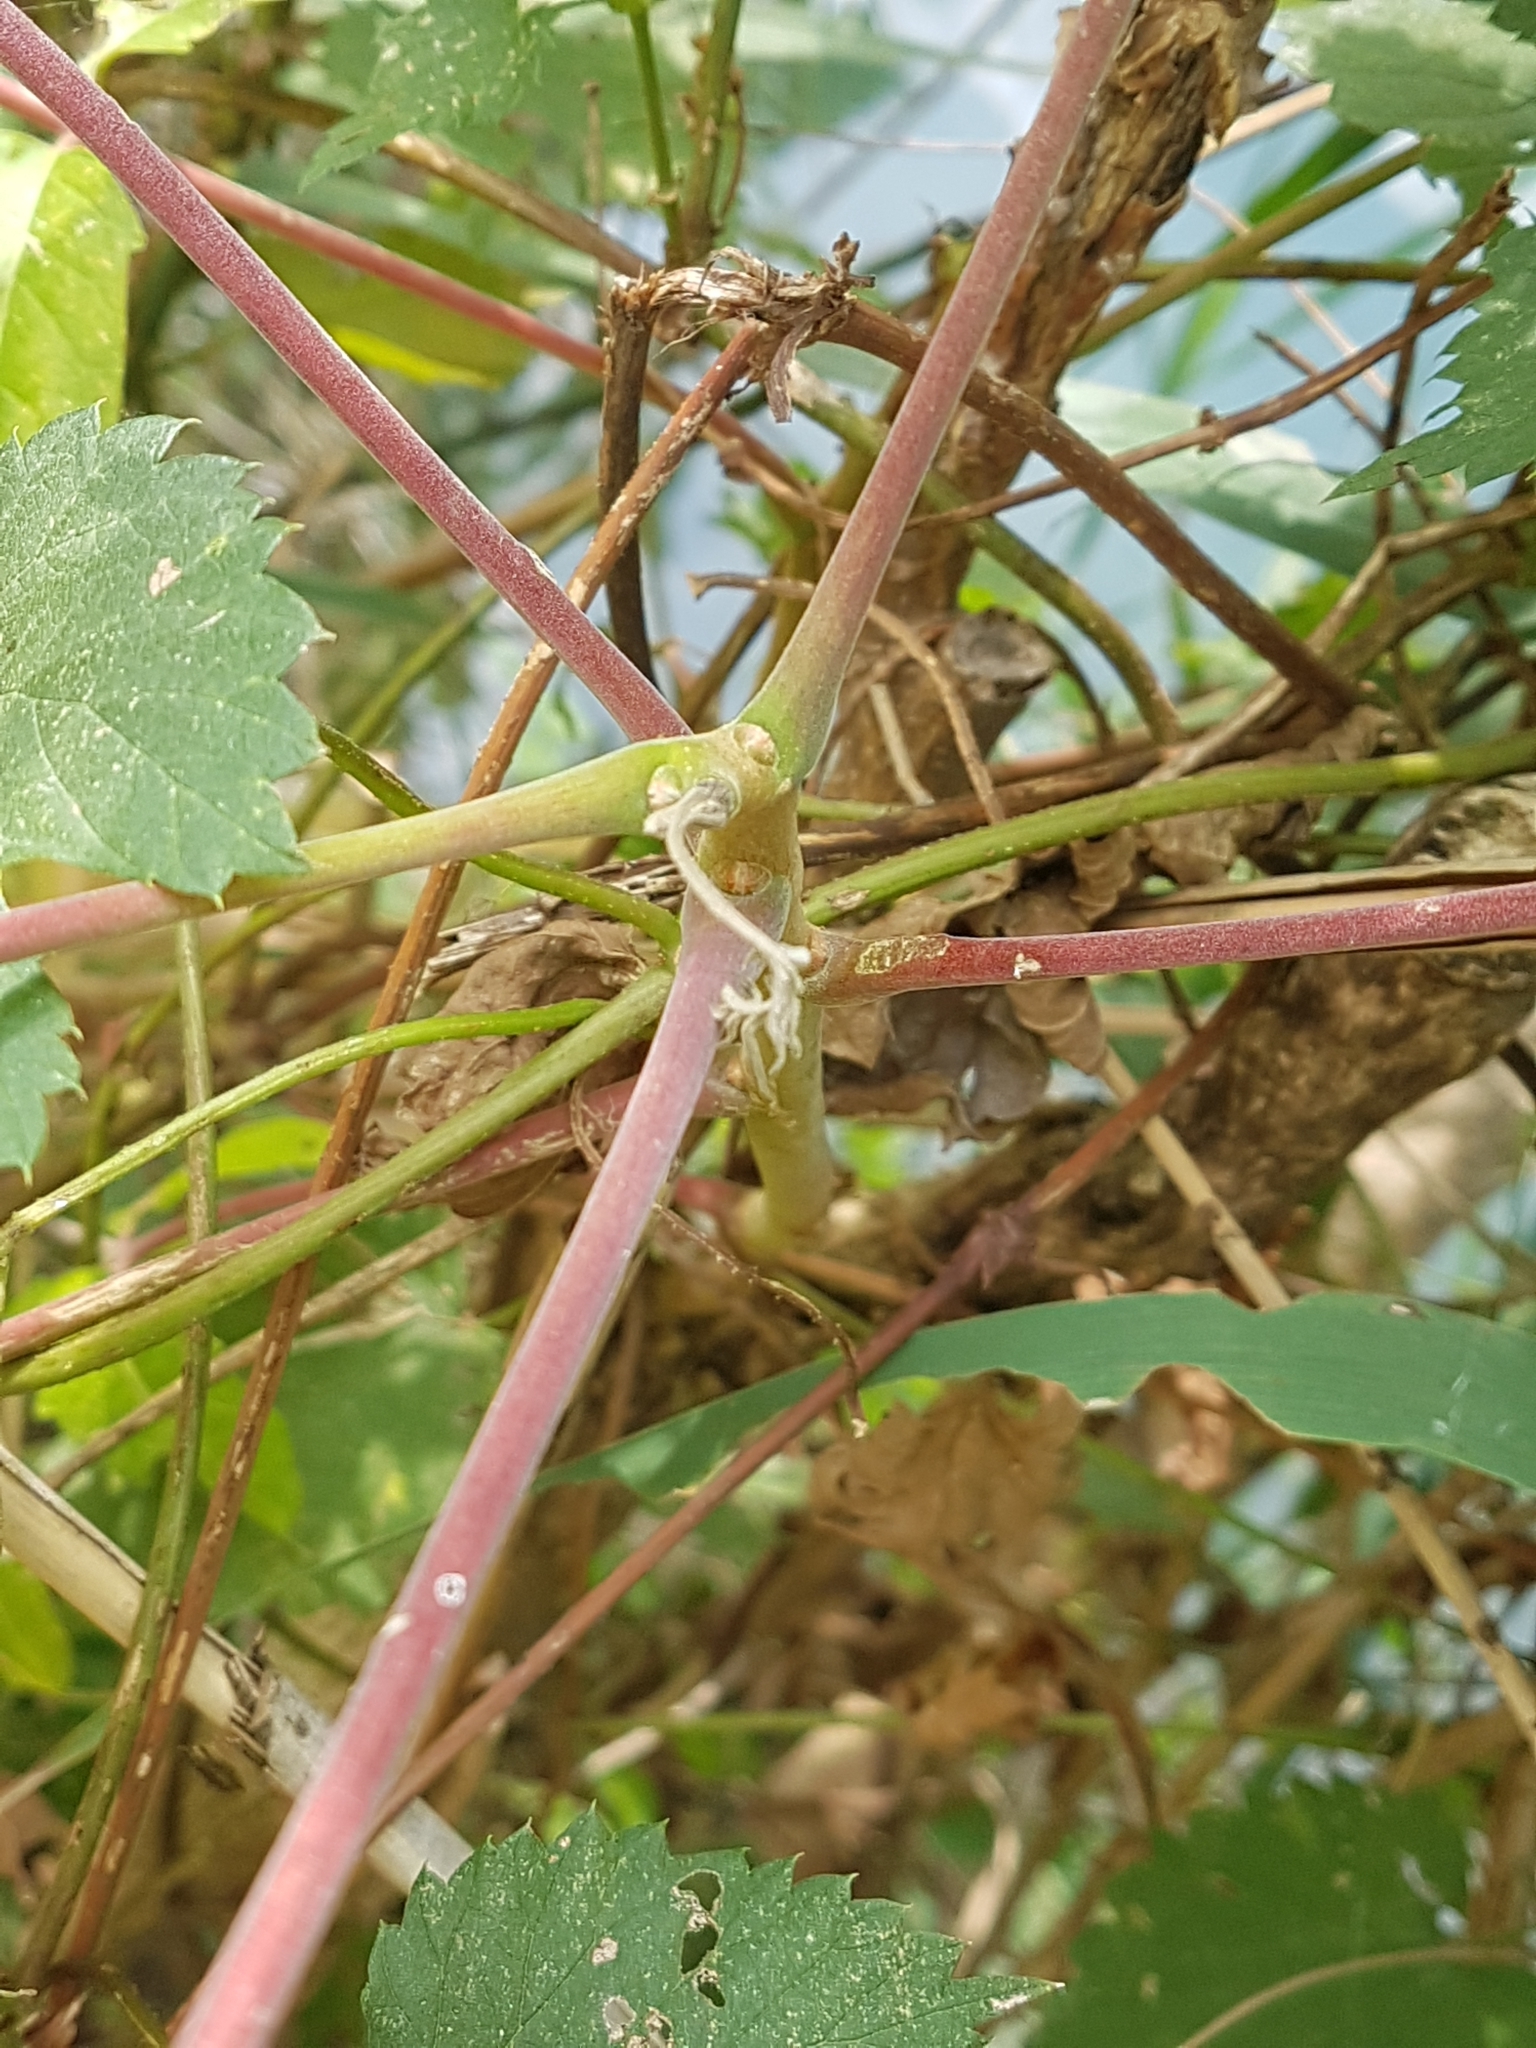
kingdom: Plantae
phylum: Tracheophyta
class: Magnoliopsida
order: Sapindales
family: Simaroubaceae
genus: Ailanthus
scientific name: Ailanthus altissima
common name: Tree-of-heaven
